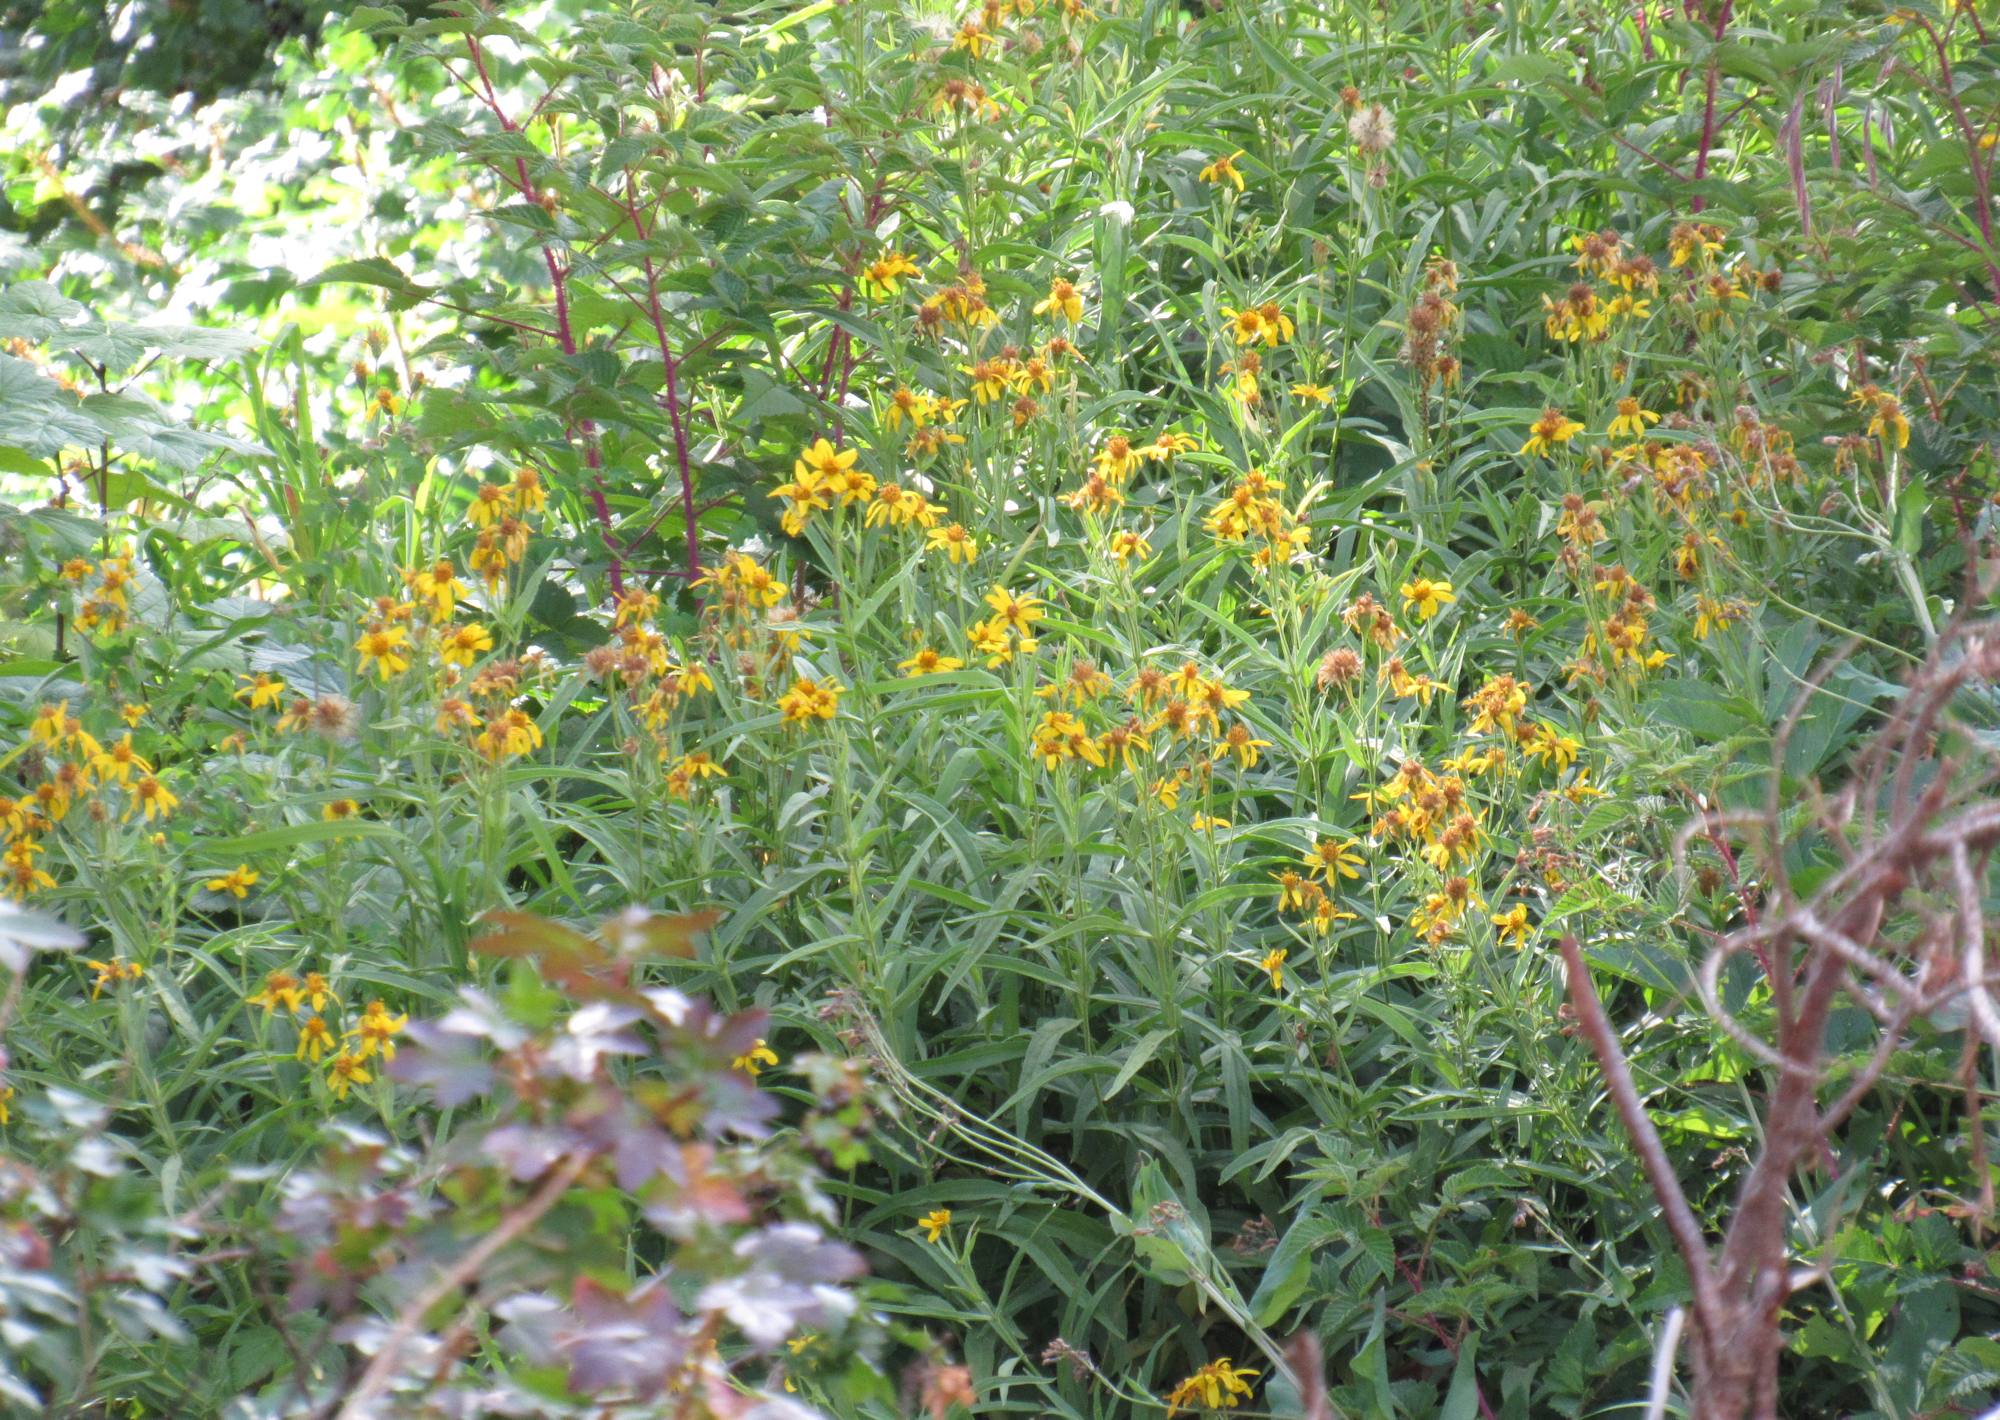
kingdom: Plantae
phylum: Tracheophyta
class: Magnoliopsida
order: Asterales
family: Asteraceae
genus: Arnica
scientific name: Arnica longifolia
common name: Spear-leaf arnica
